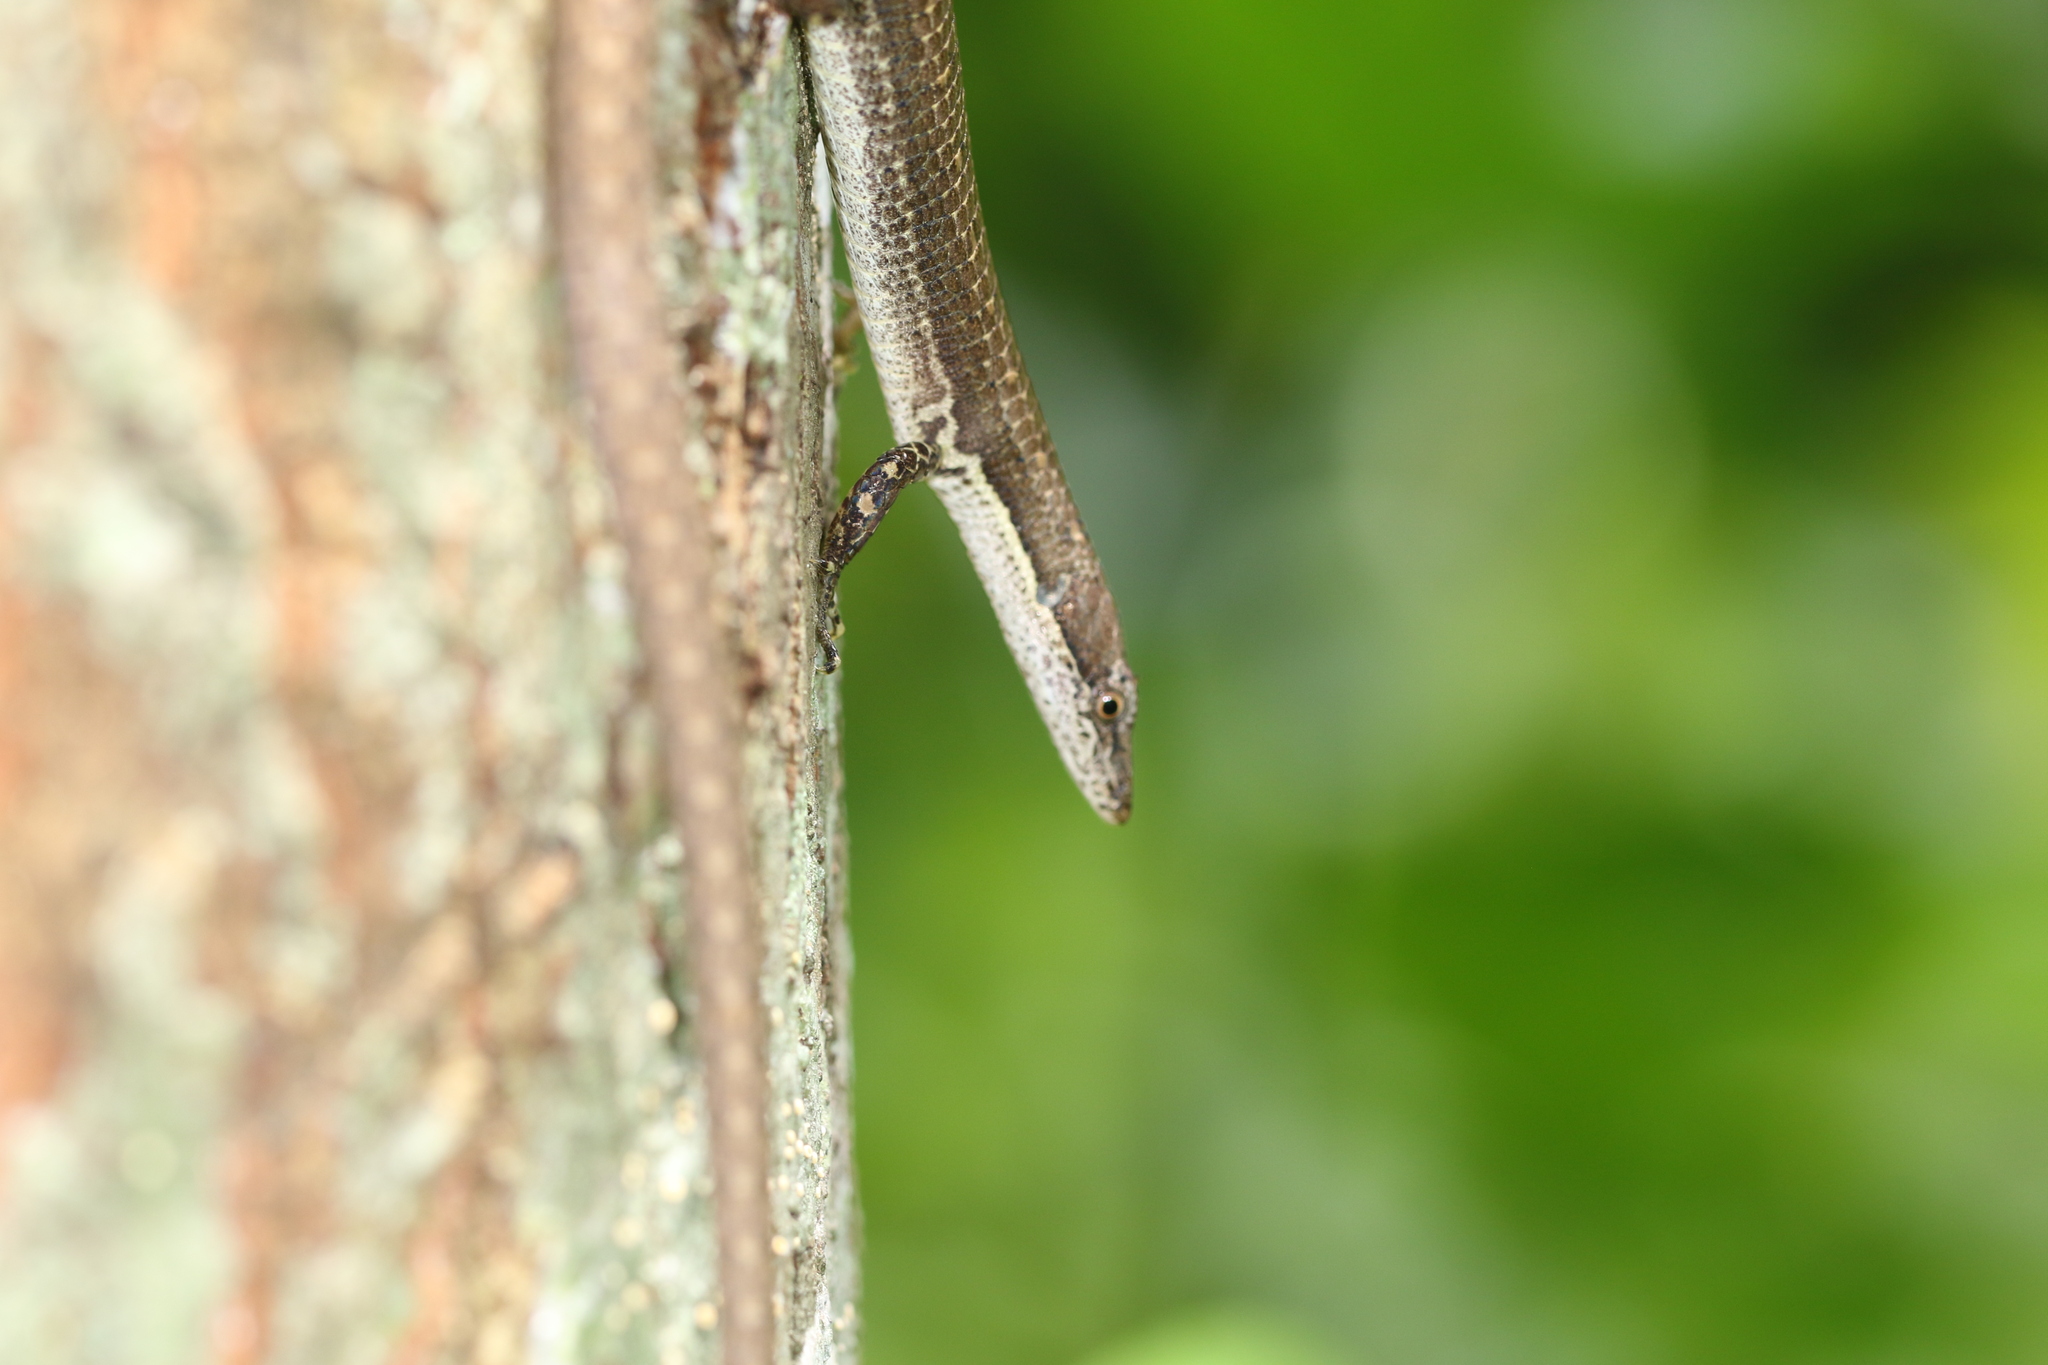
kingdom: Animalia
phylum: Chordata
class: Squamata
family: Gymnophthalmidae
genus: Placosoma
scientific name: Placosoma glabellum
